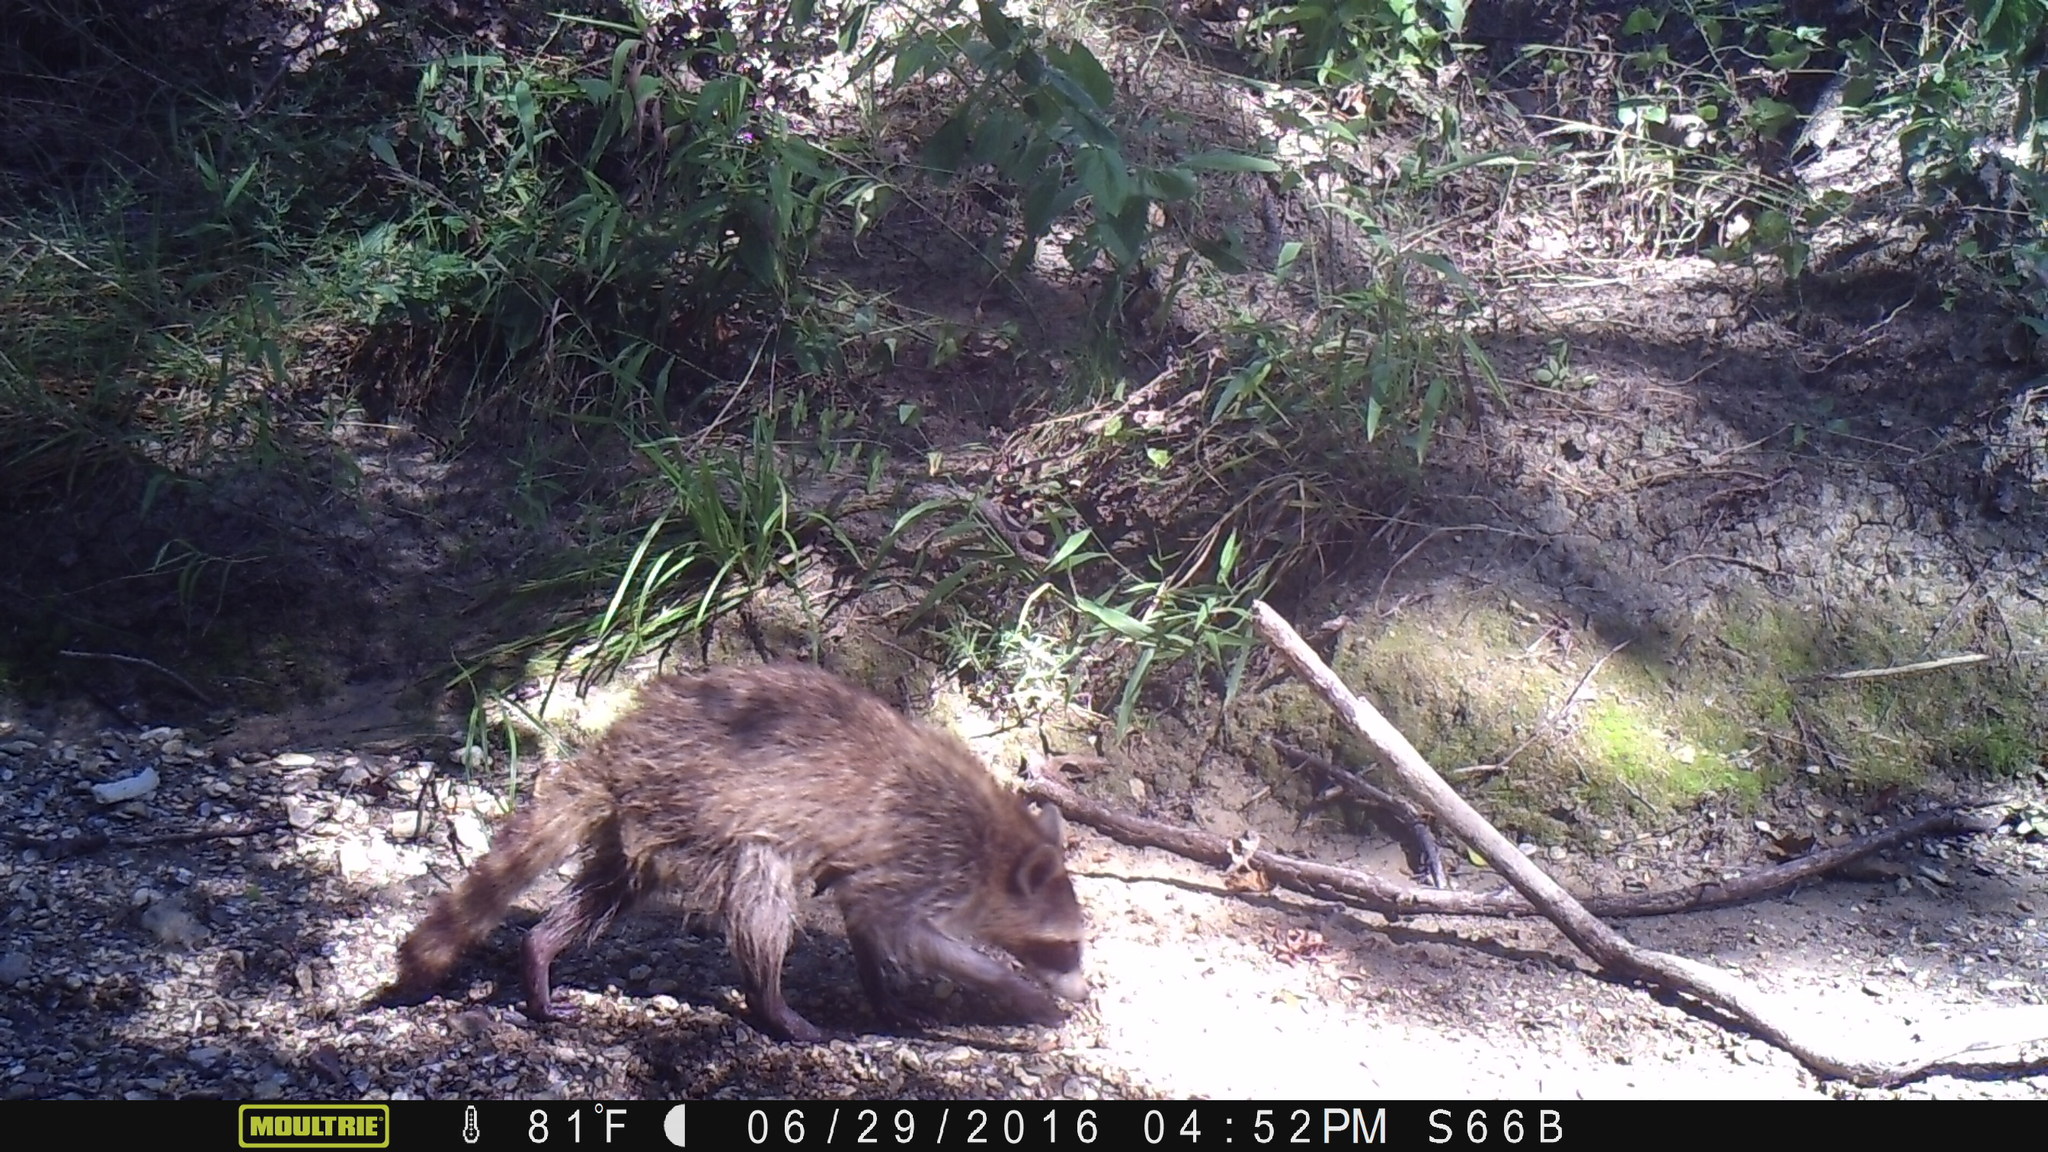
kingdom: Animalia
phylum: Chordata
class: Mammalia
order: Carnivora
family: Procyonidae
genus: Procyon
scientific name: Procyon lotor
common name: Raccoon
